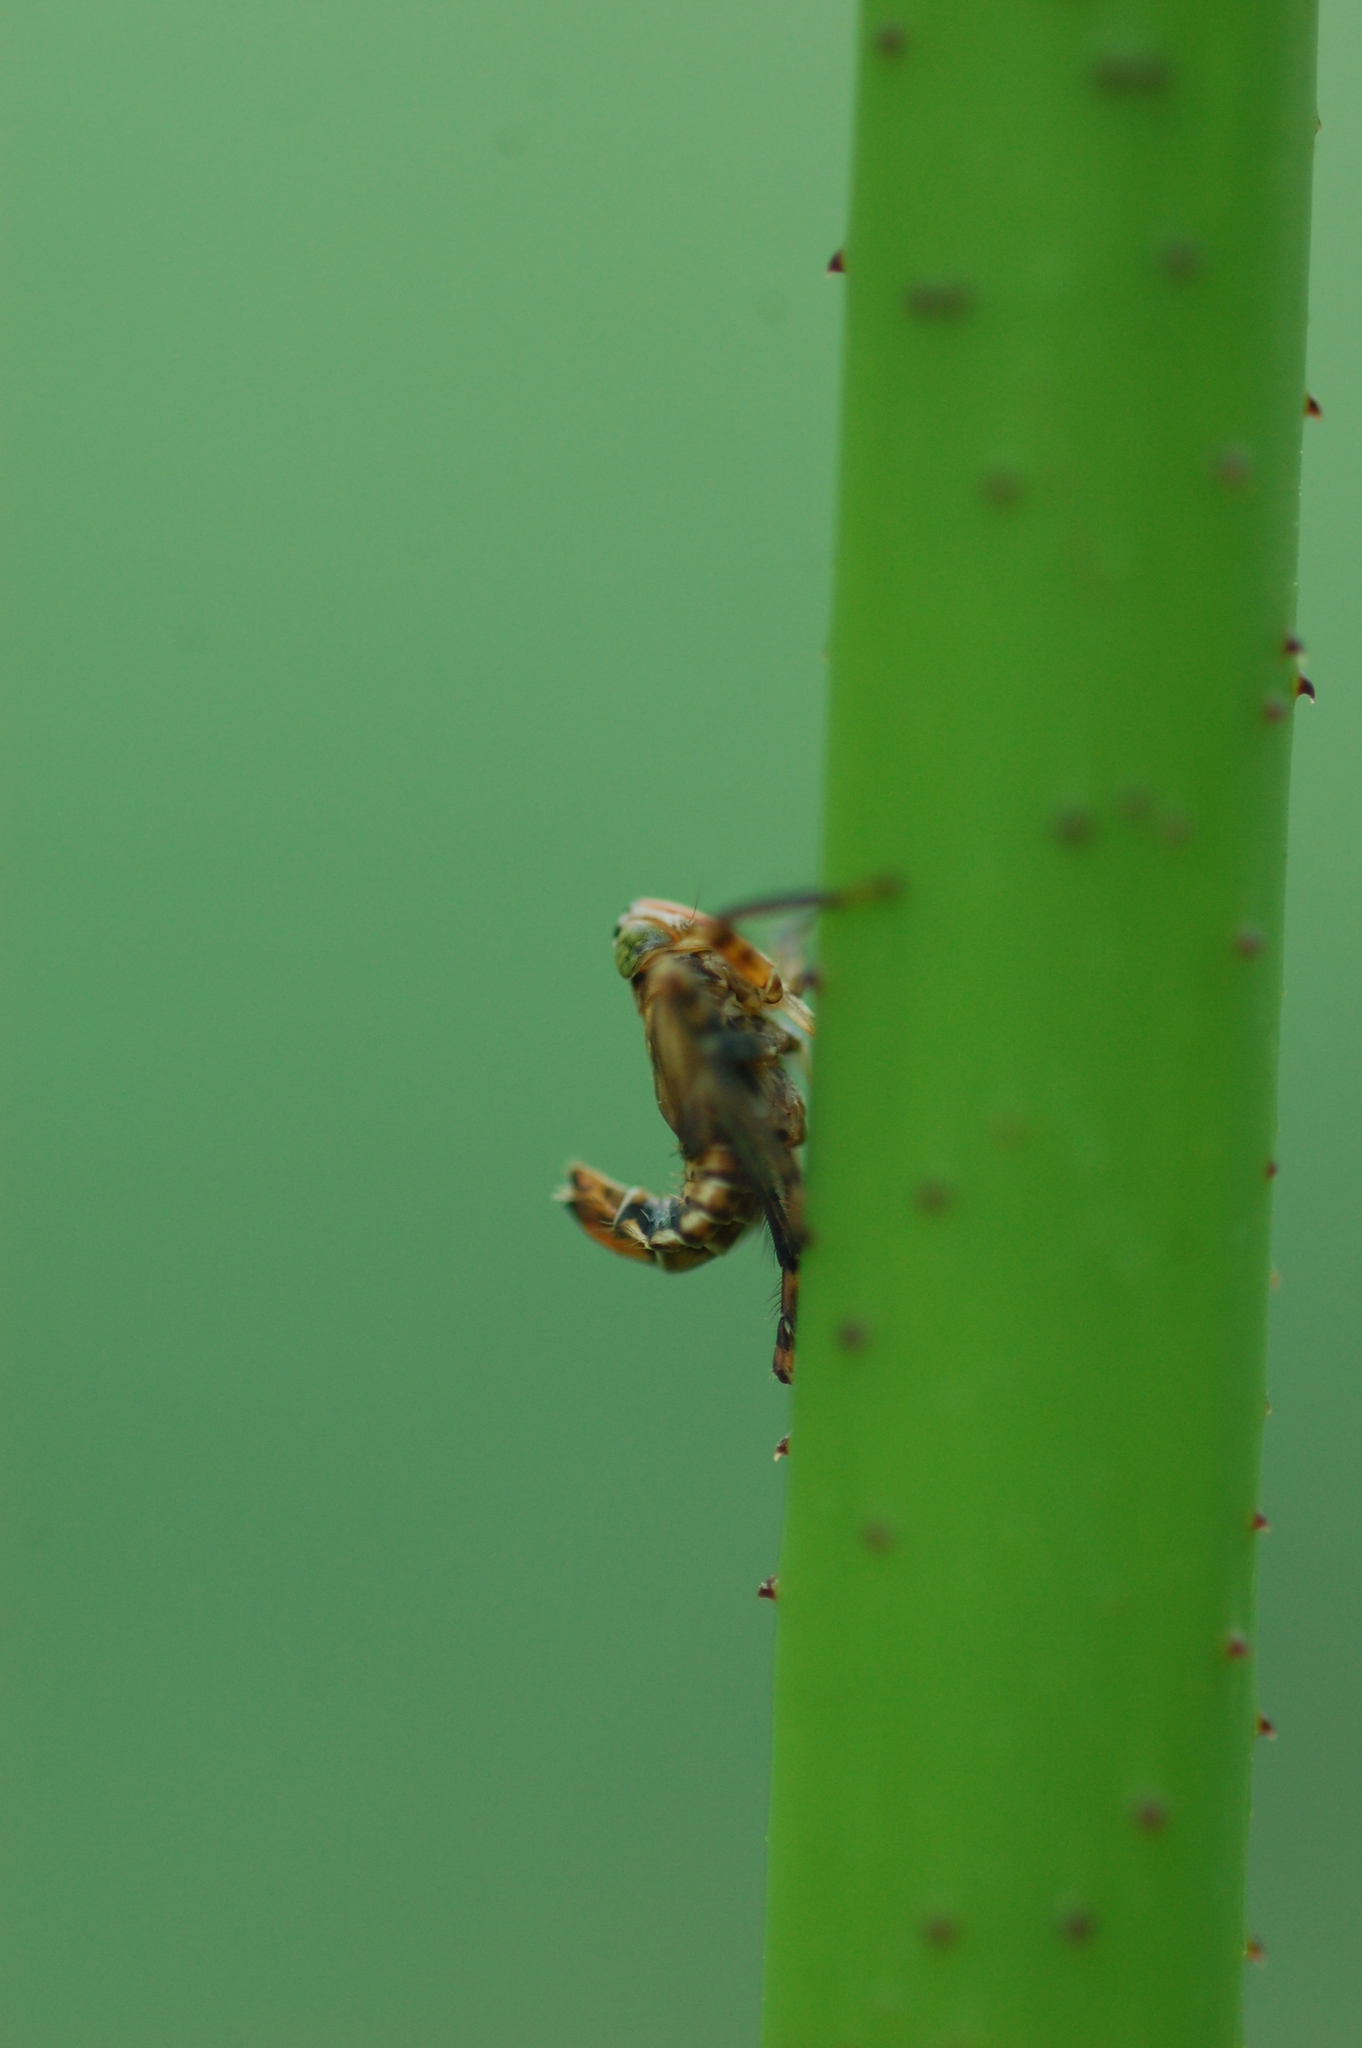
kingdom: Animalia
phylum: Arthropoda
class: Insecta
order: Hemiptera
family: Cicadellidae
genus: Jikradia
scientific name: Jikradia olitoria
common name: Coppery leafhopper
